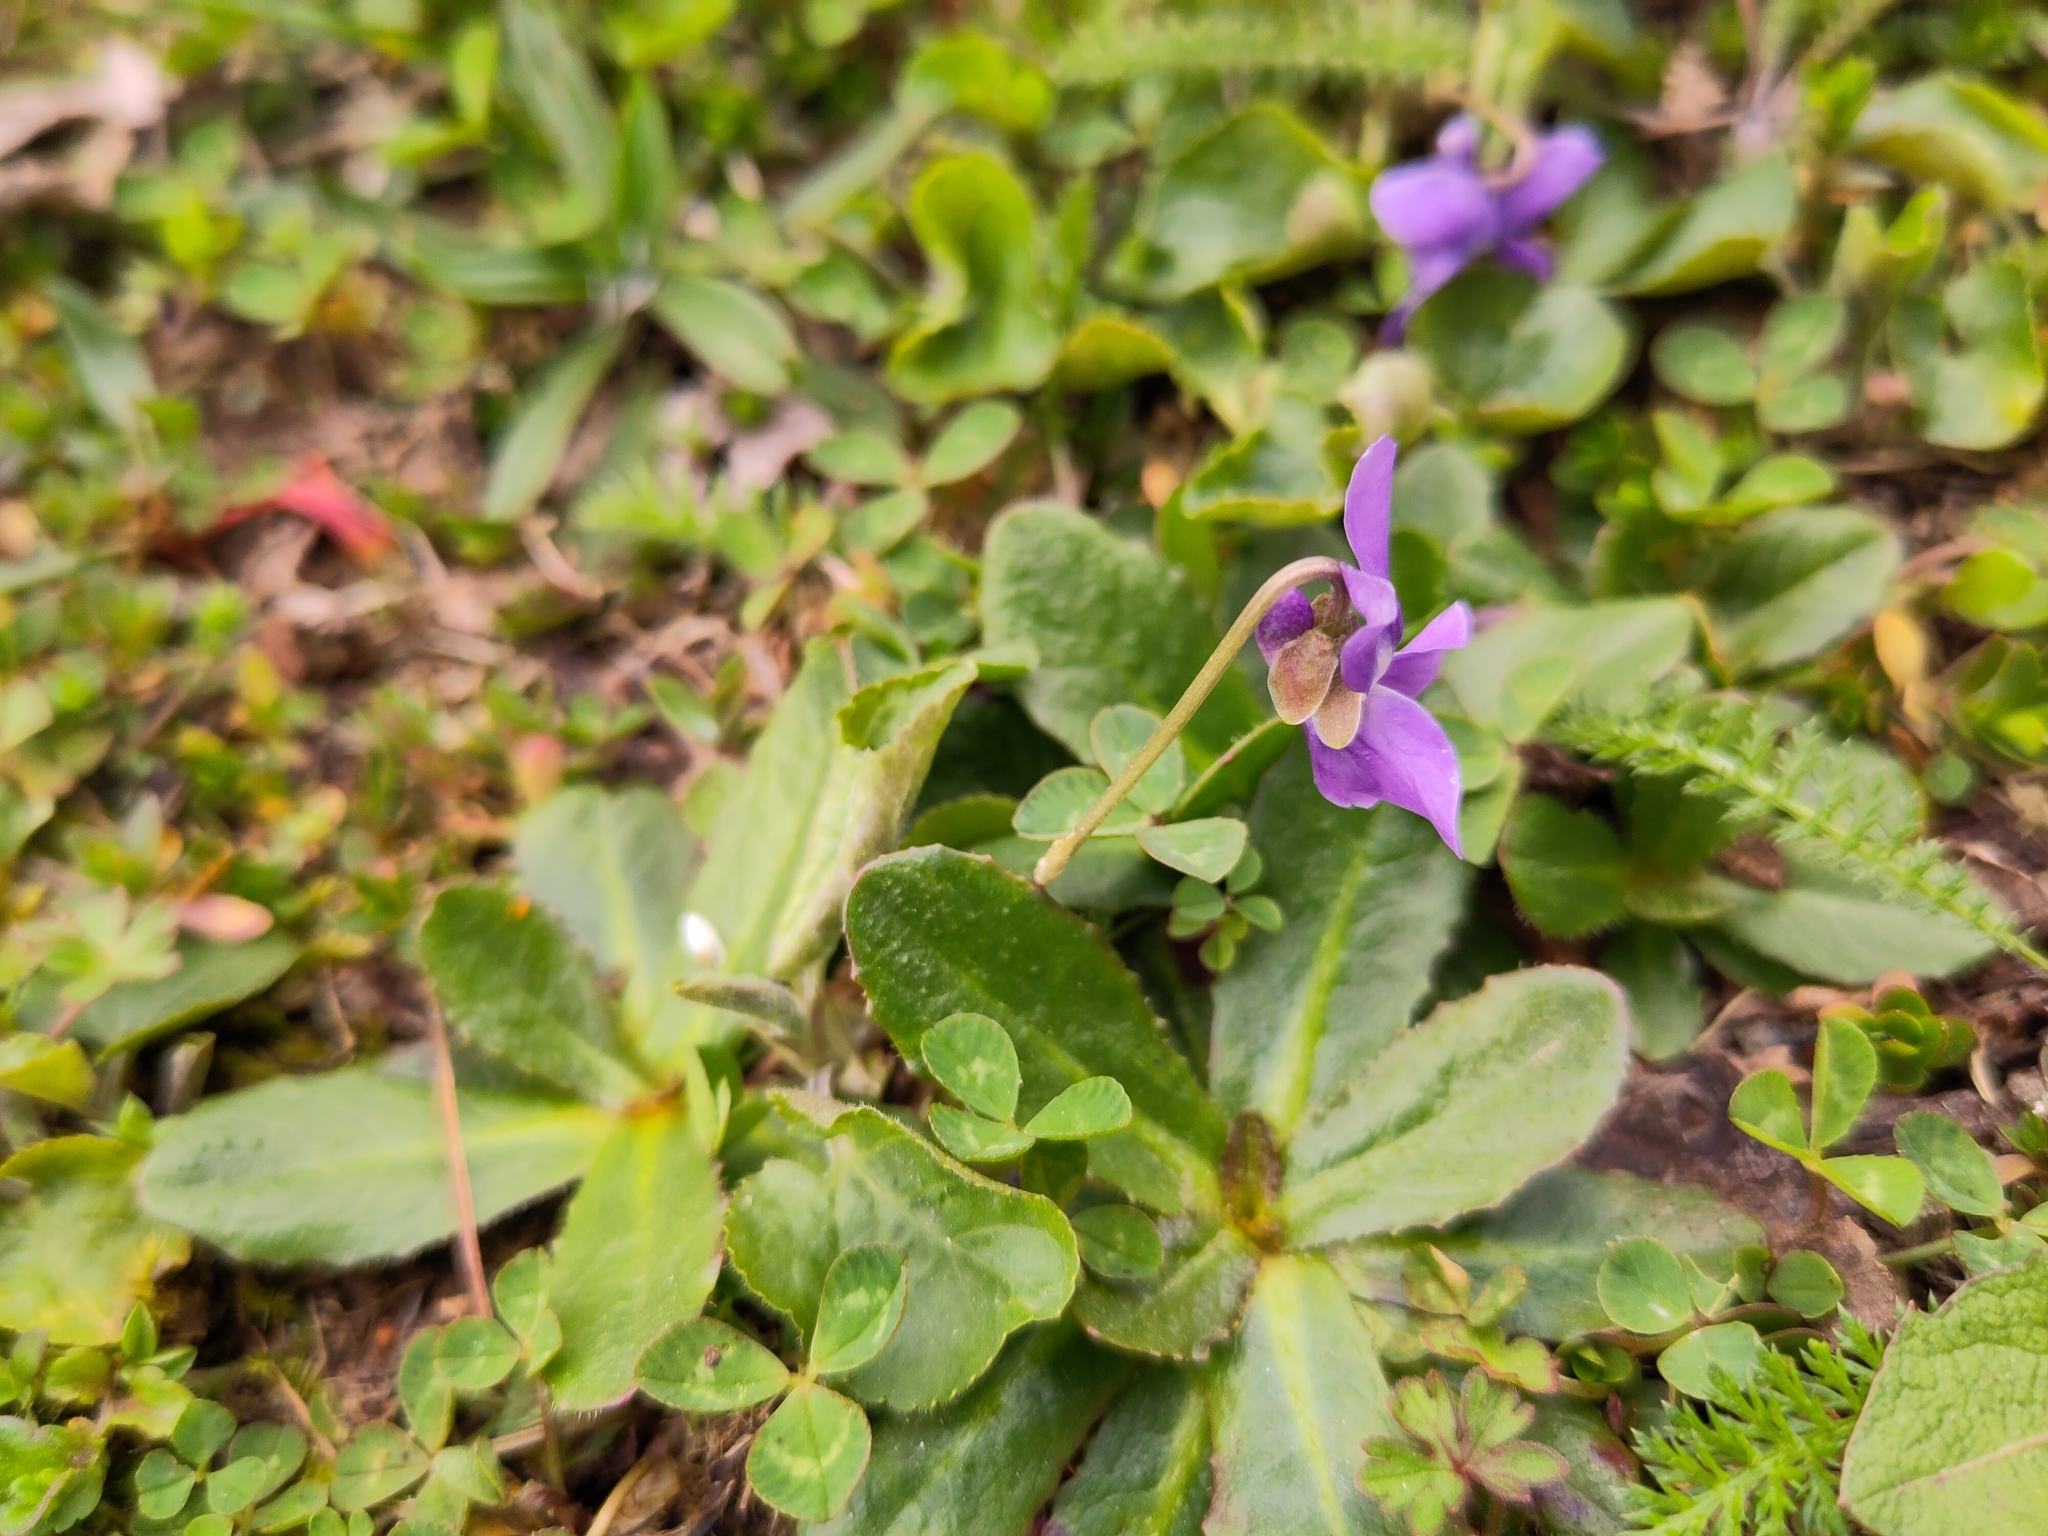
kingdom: Plantae
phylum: Tracheophyta
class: Magnoliopsida
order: Malpighiales
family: Violaceae
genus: Viola
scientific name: Viola odorata
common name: Sweet violet
